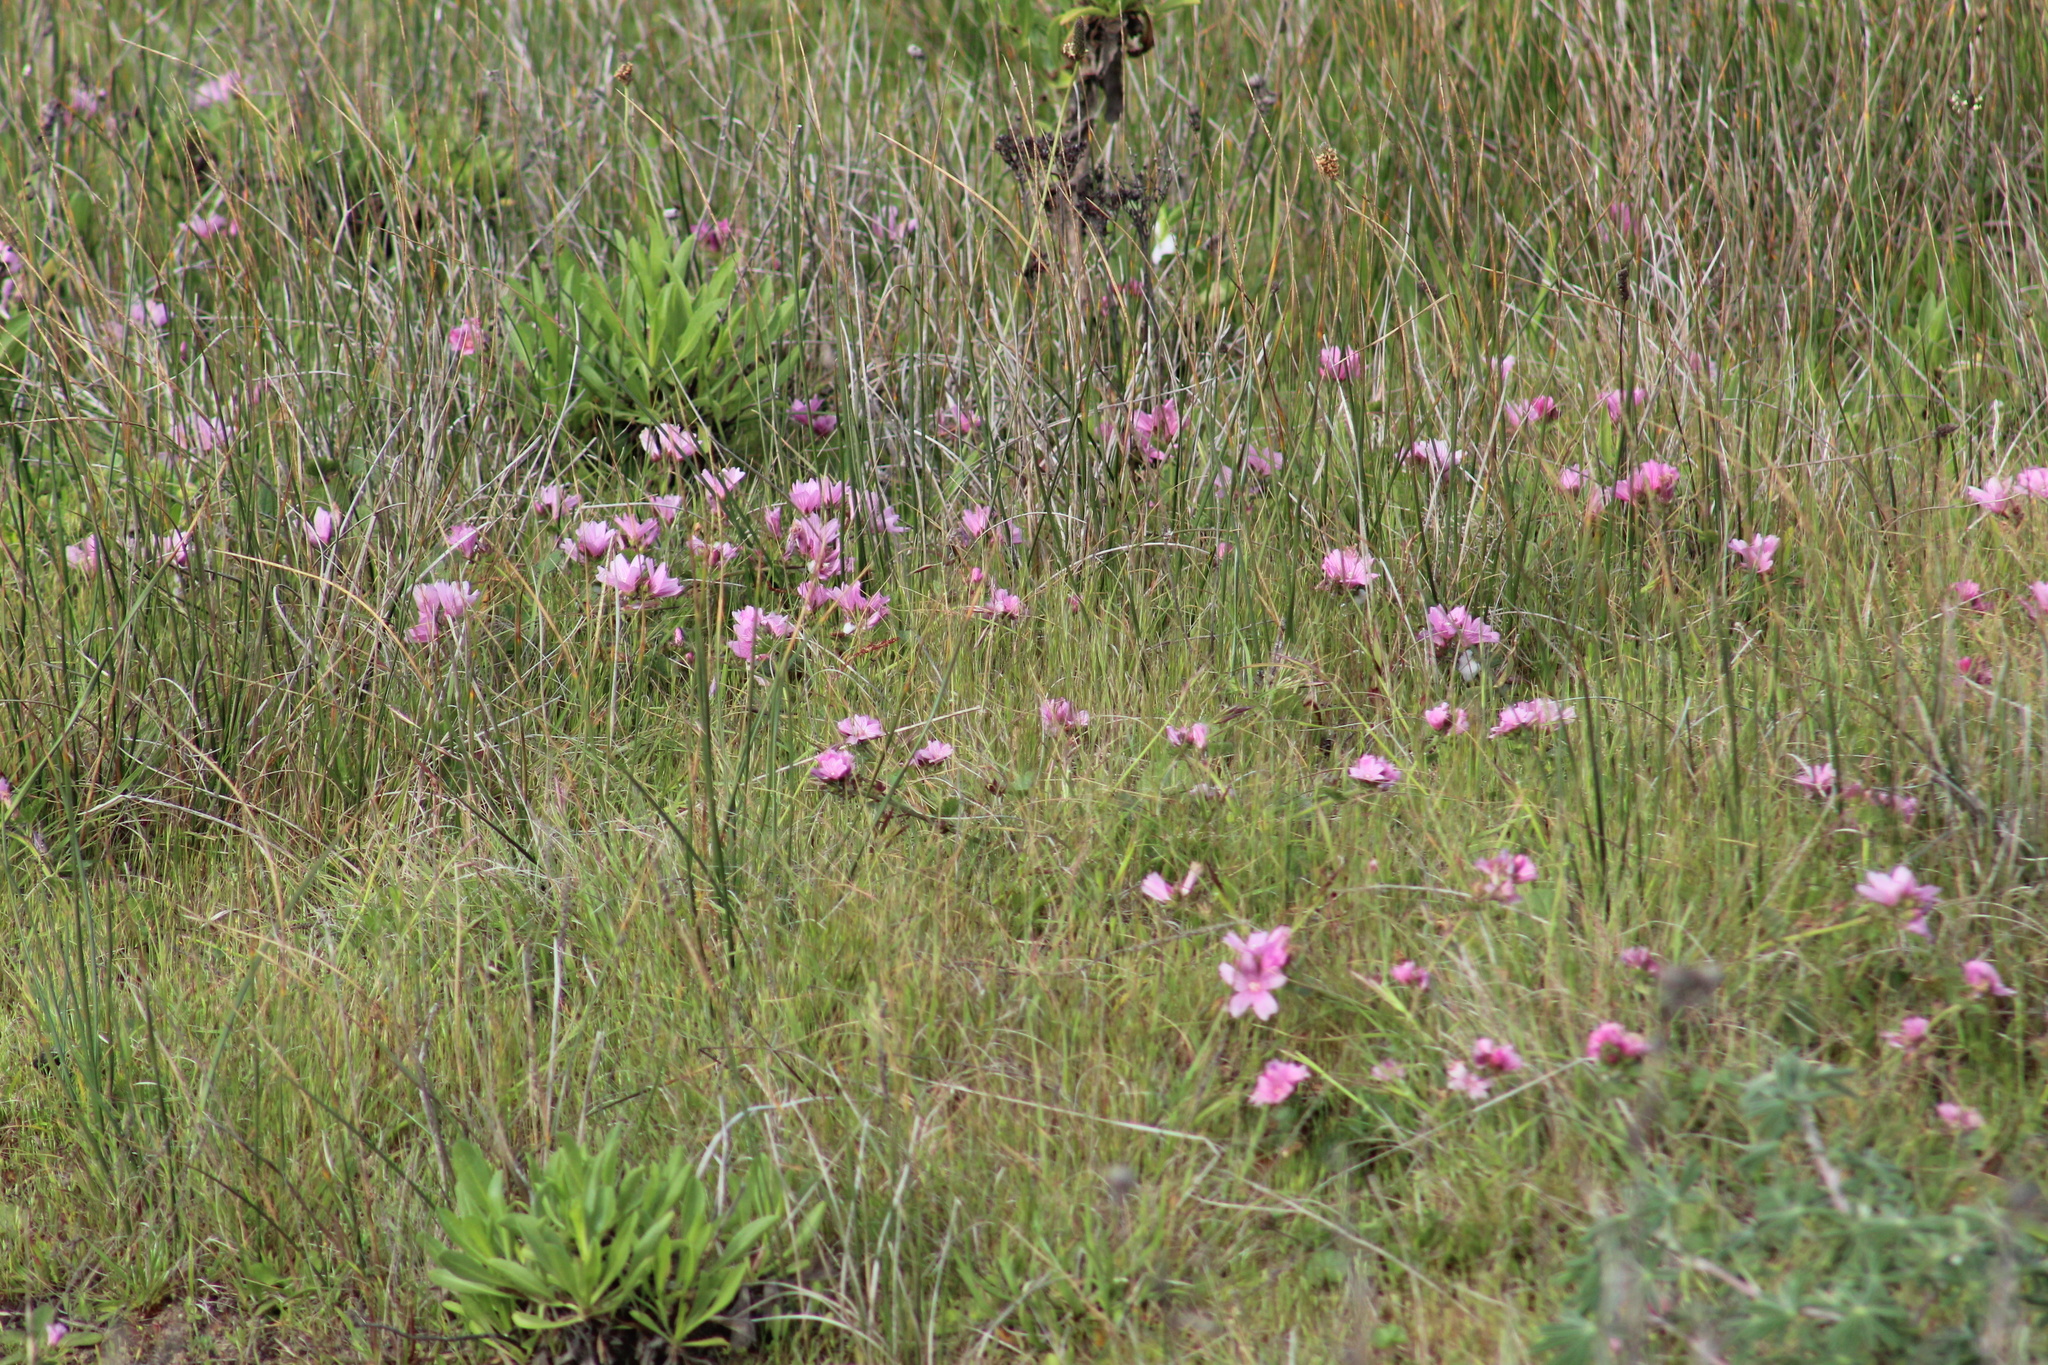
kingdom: Plantae
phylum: Tracheophyta
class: Magnoliopsida
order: Malvales
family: Malvaceae
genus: Sidalcea
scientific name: Sidalcea malviflora
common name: Greek mallow
